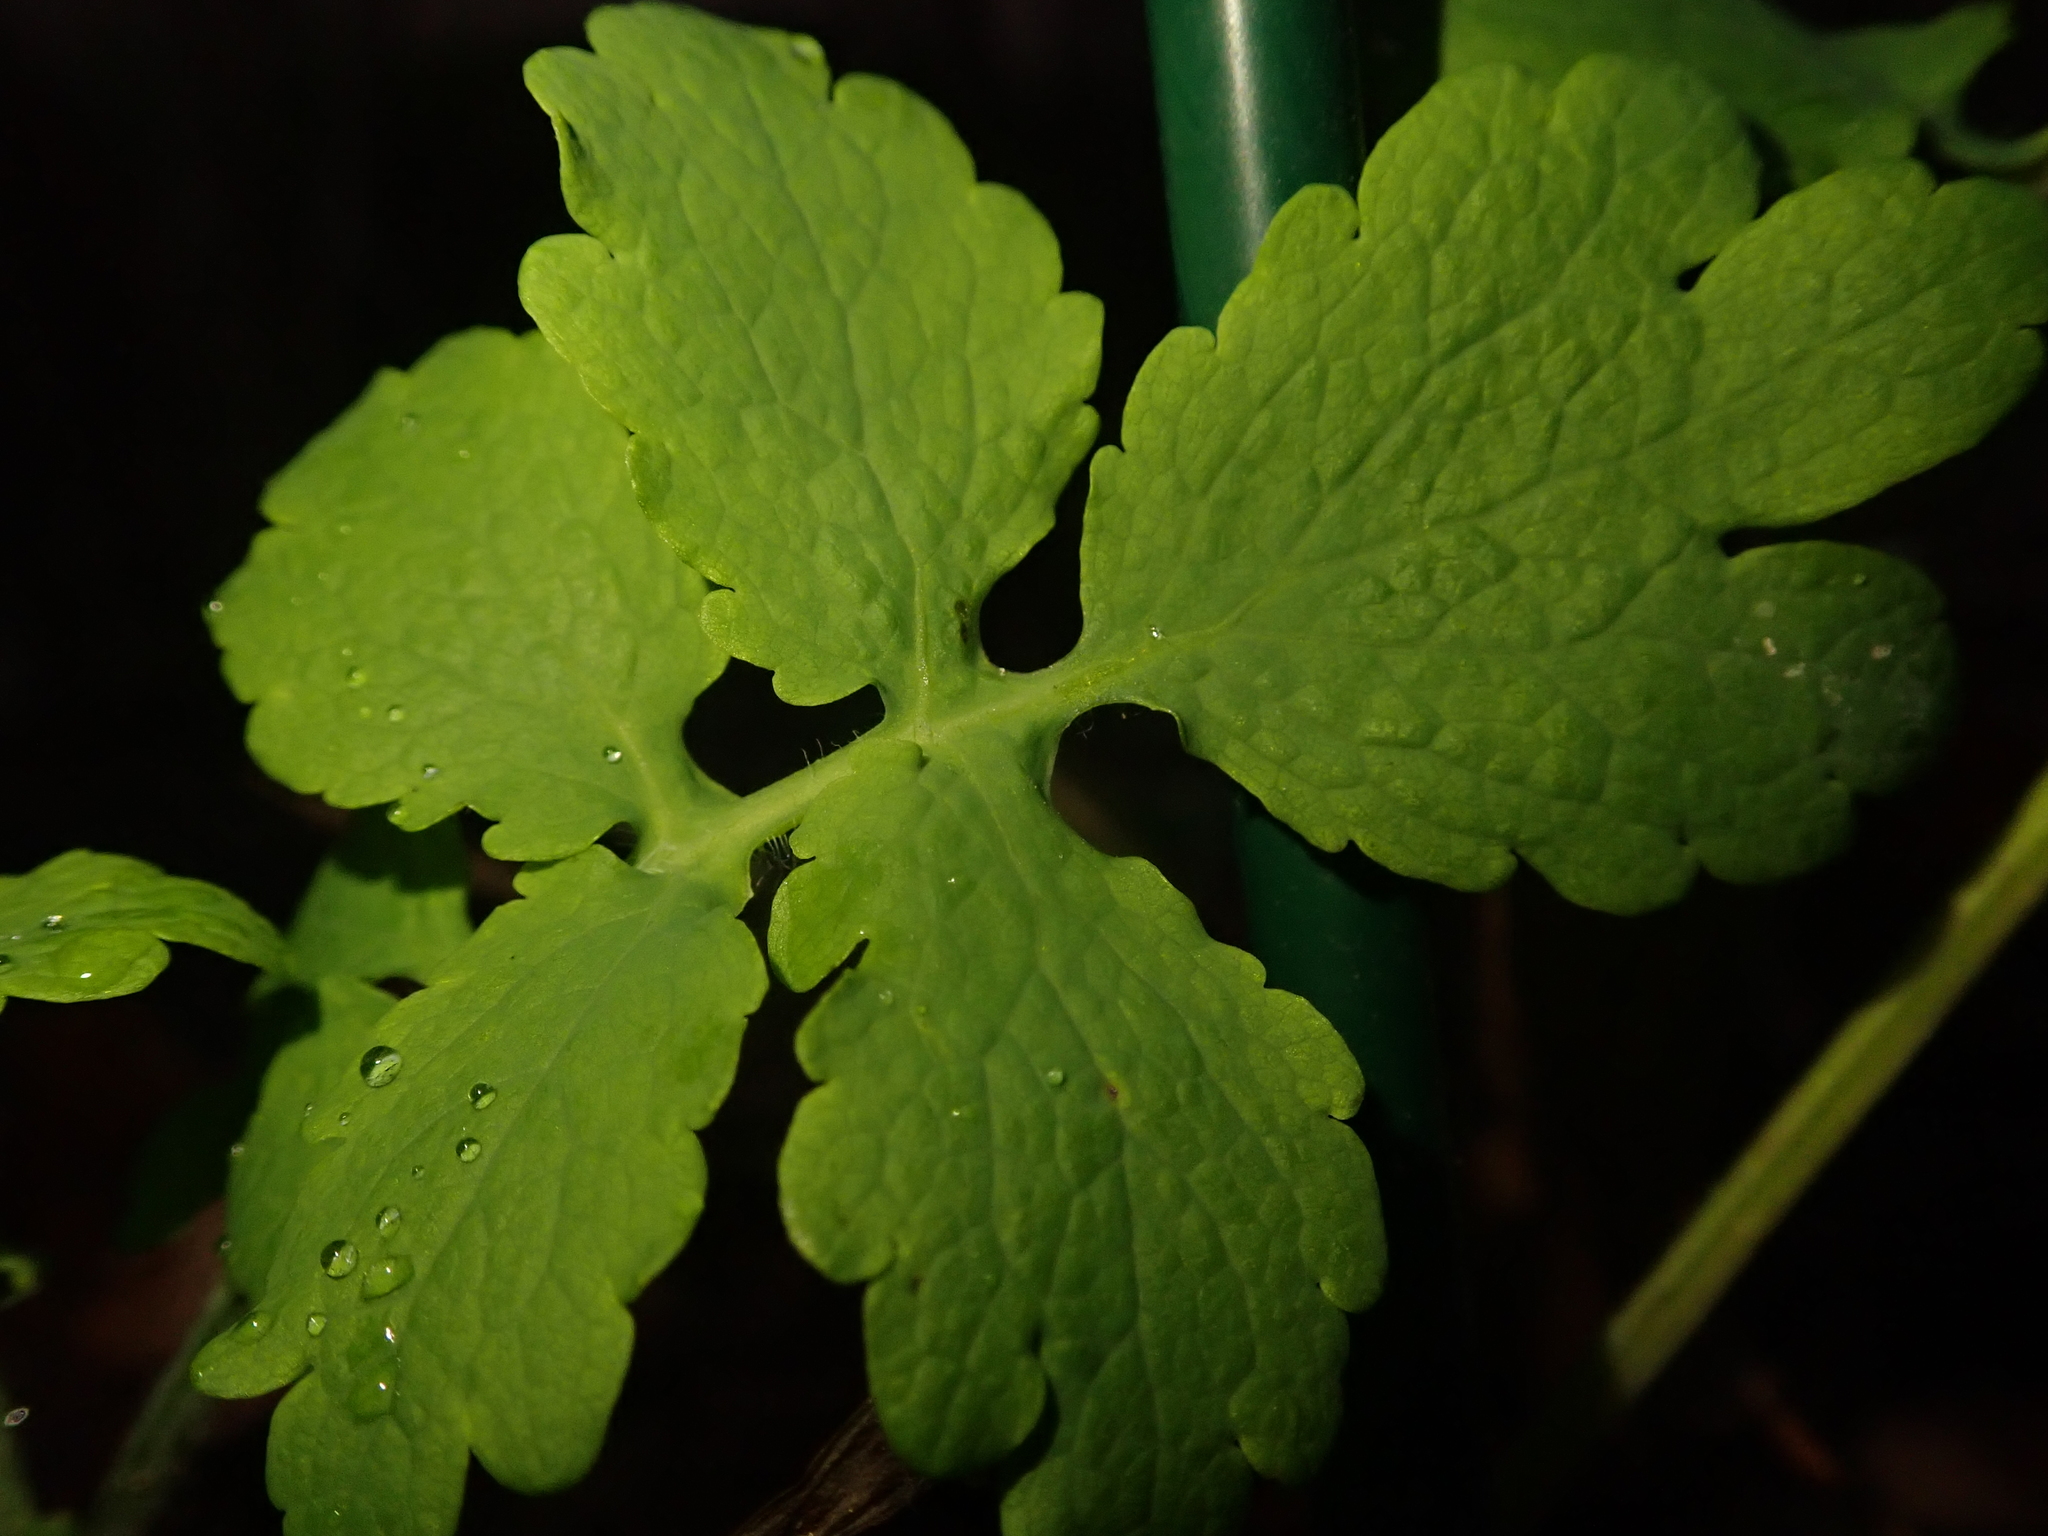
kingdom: Plantae
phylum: Tracheophyta
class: Magnoliopsida
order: Ranunculales
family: Papaveraceae
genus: Chelidonium
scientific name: Chelidonium majus
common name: Greater celandine
